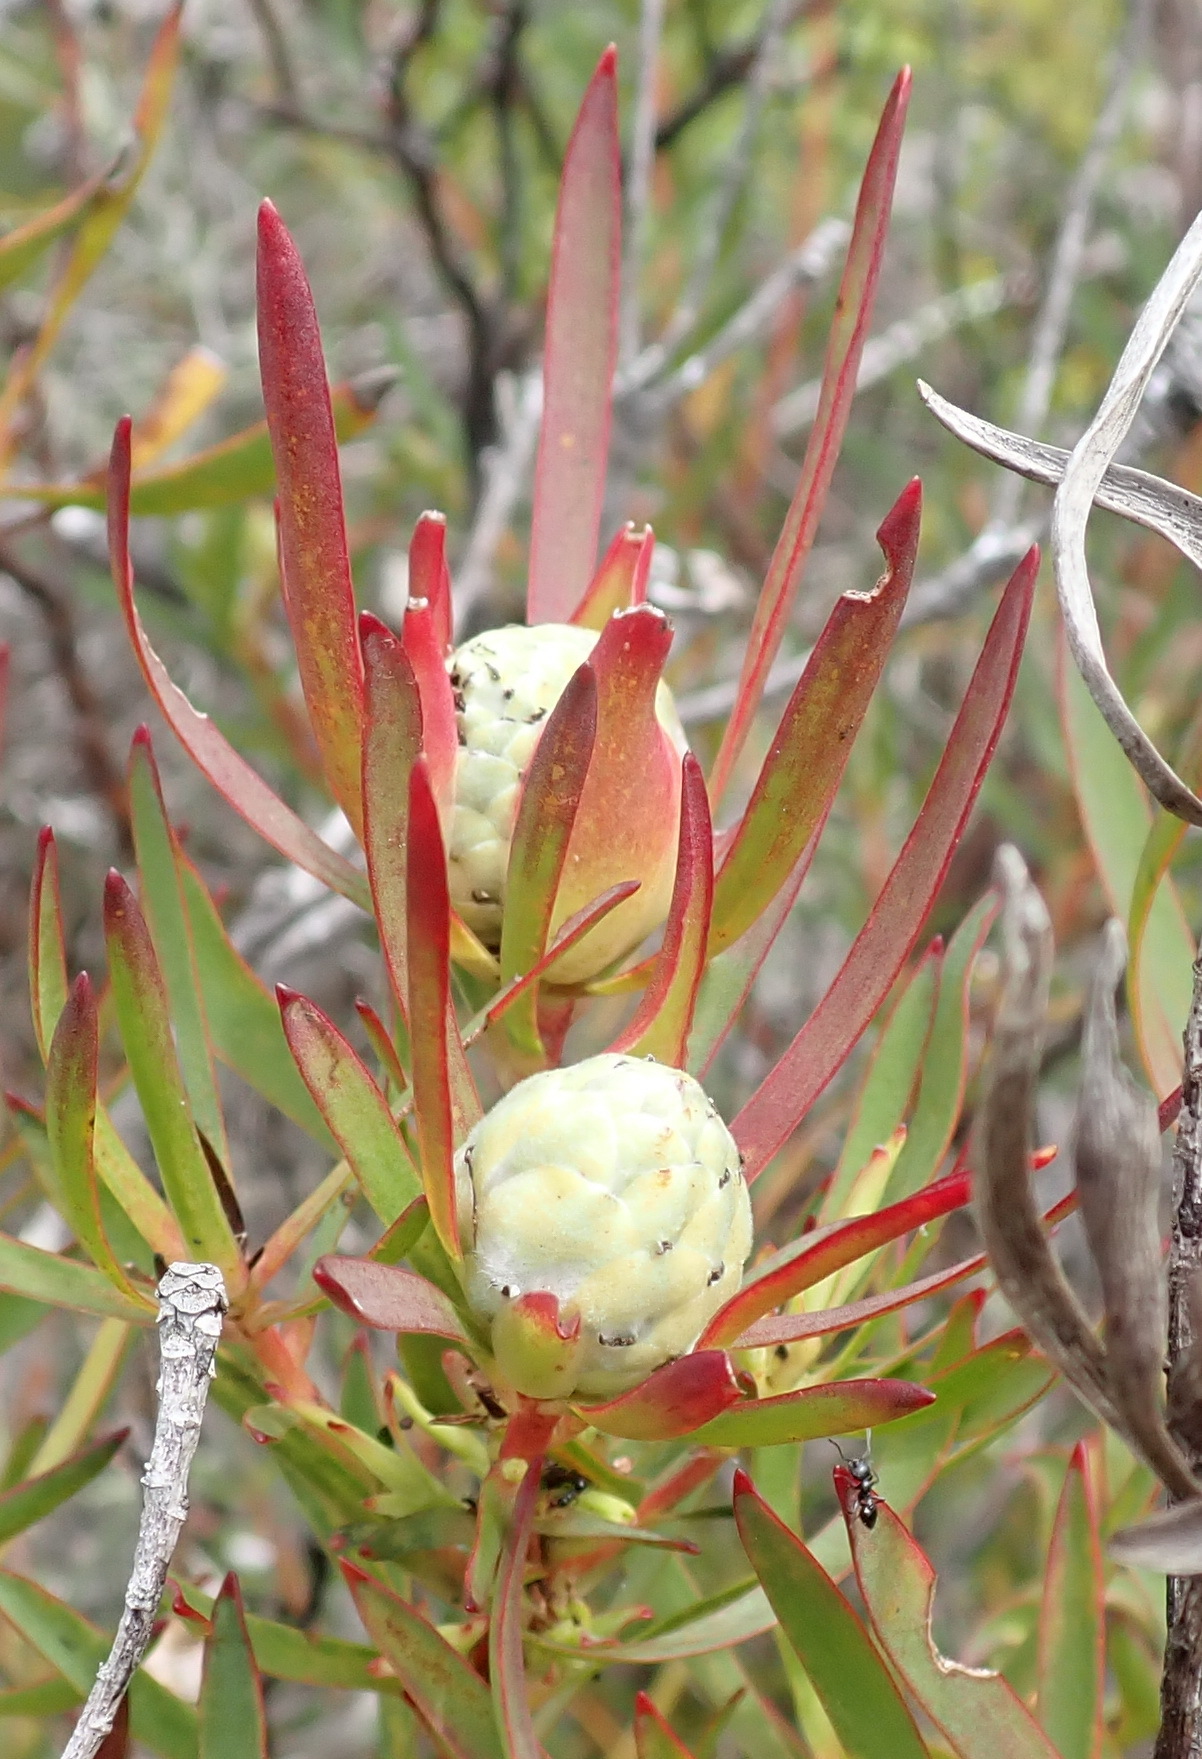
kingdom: Plantae
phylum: Tracheophyta
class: Magnoliopsida
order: Proteales
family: Proteaceae
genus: Leucadendron
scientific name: Leucadendron salignum
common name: Common sunshine conebush
